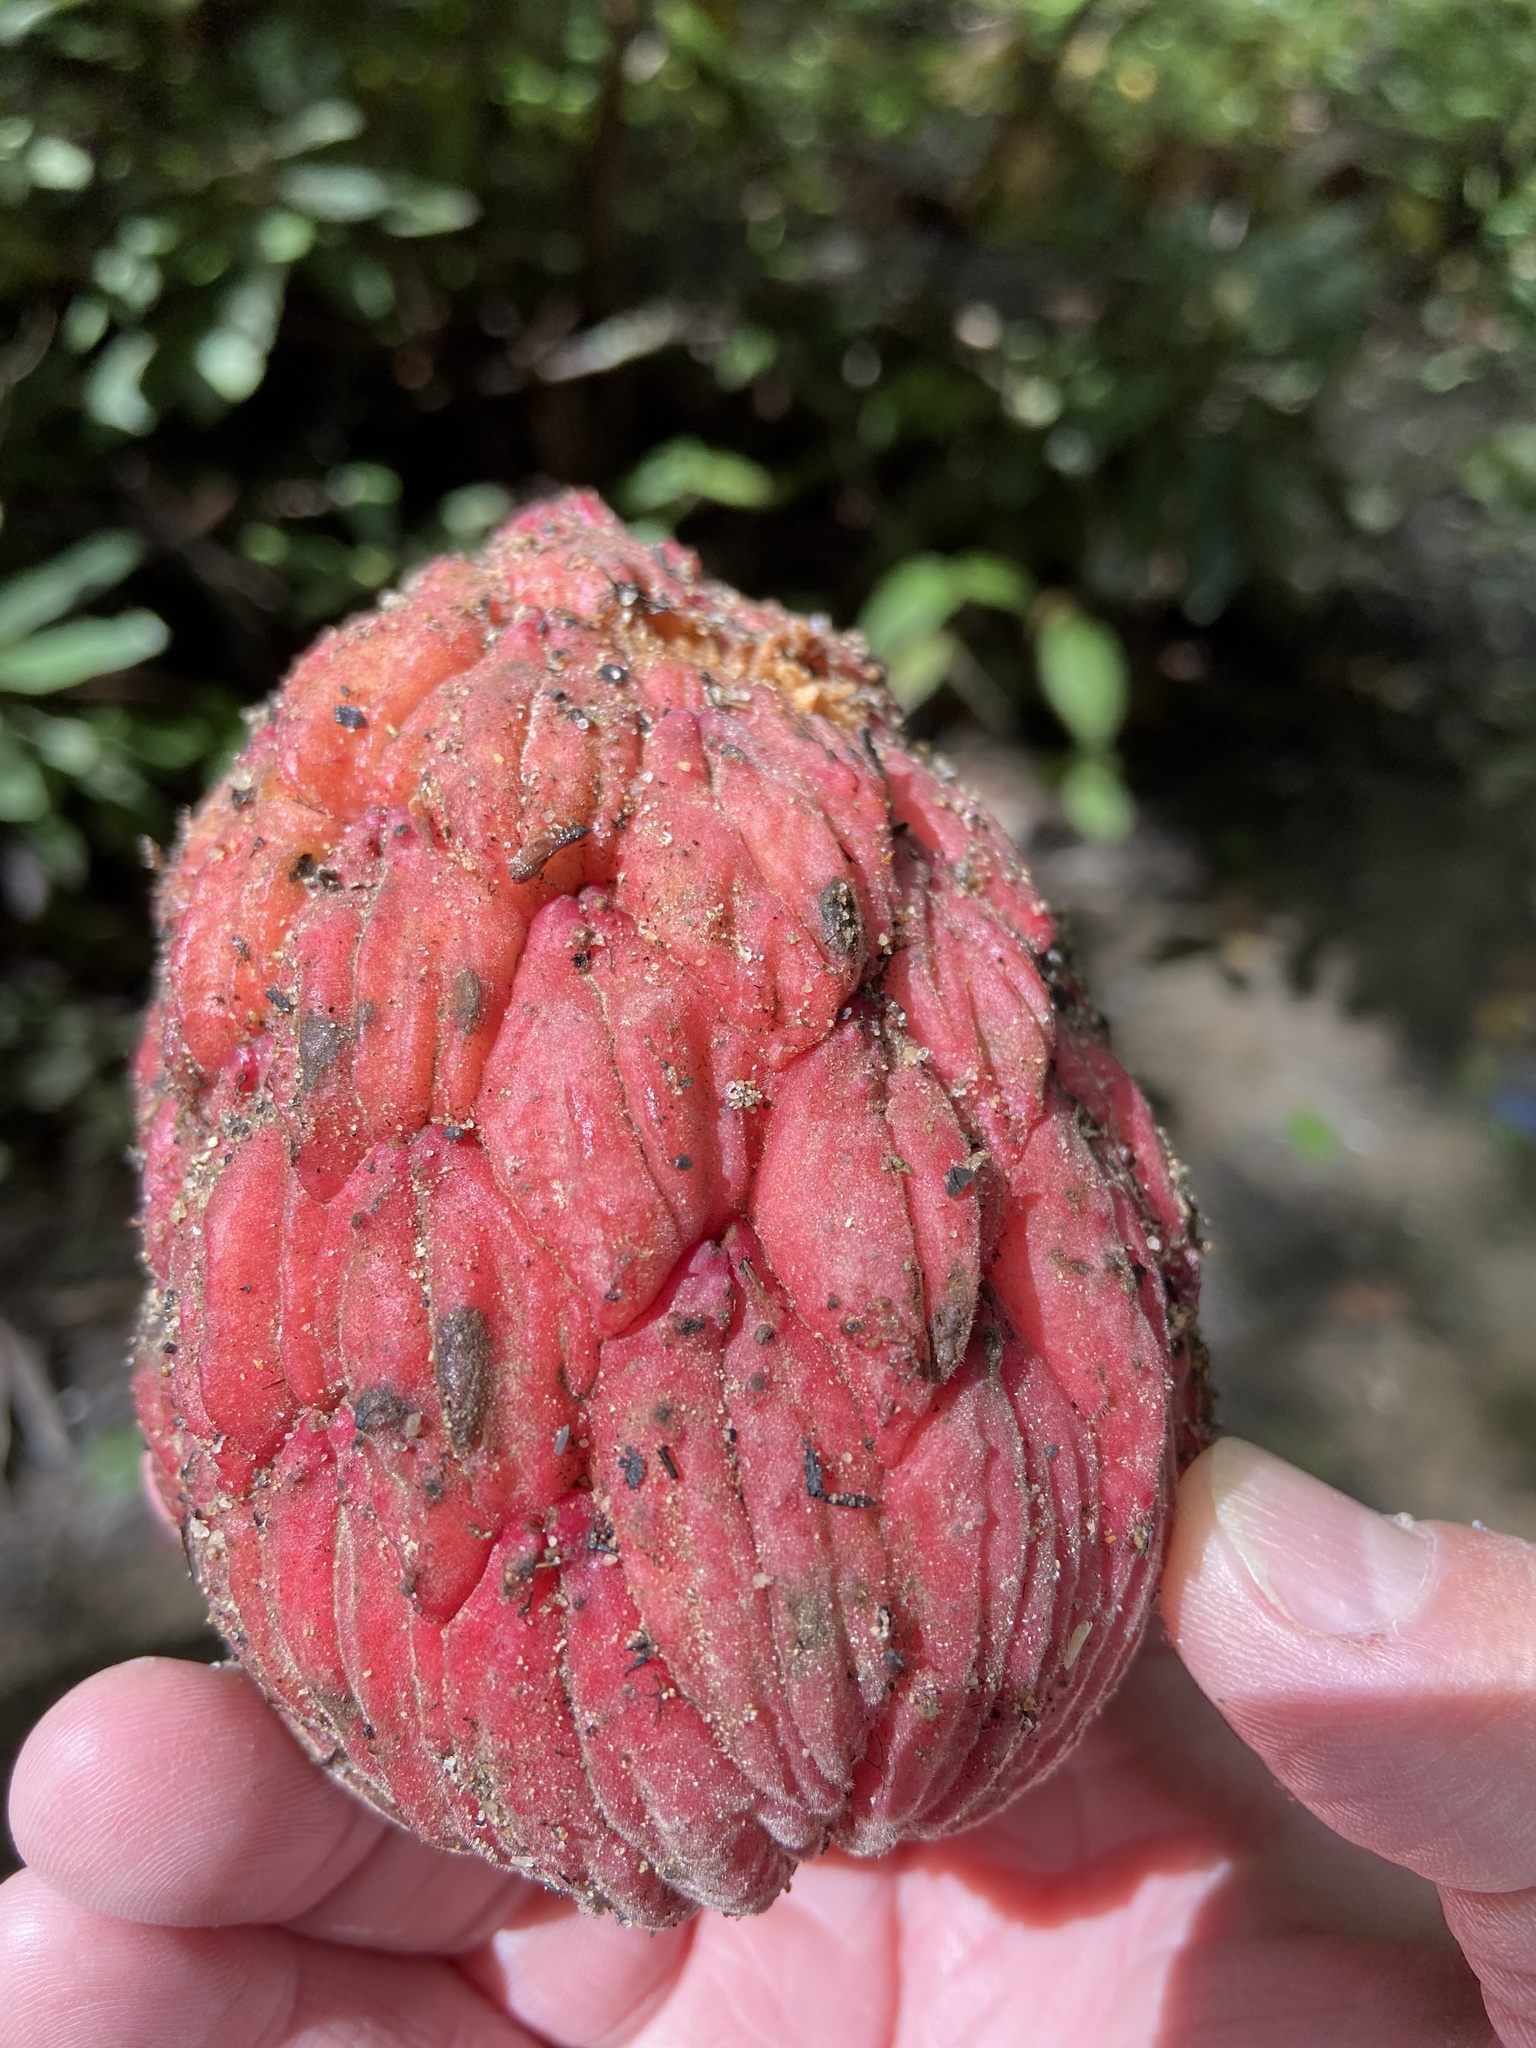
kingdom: Plantae
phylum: Tracheophyta
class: Magnoliopsida
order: Magnoliales
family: Magnoliaceae
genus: Magnolia
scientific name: Magnolia grandiflora
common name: Southern magnolia
